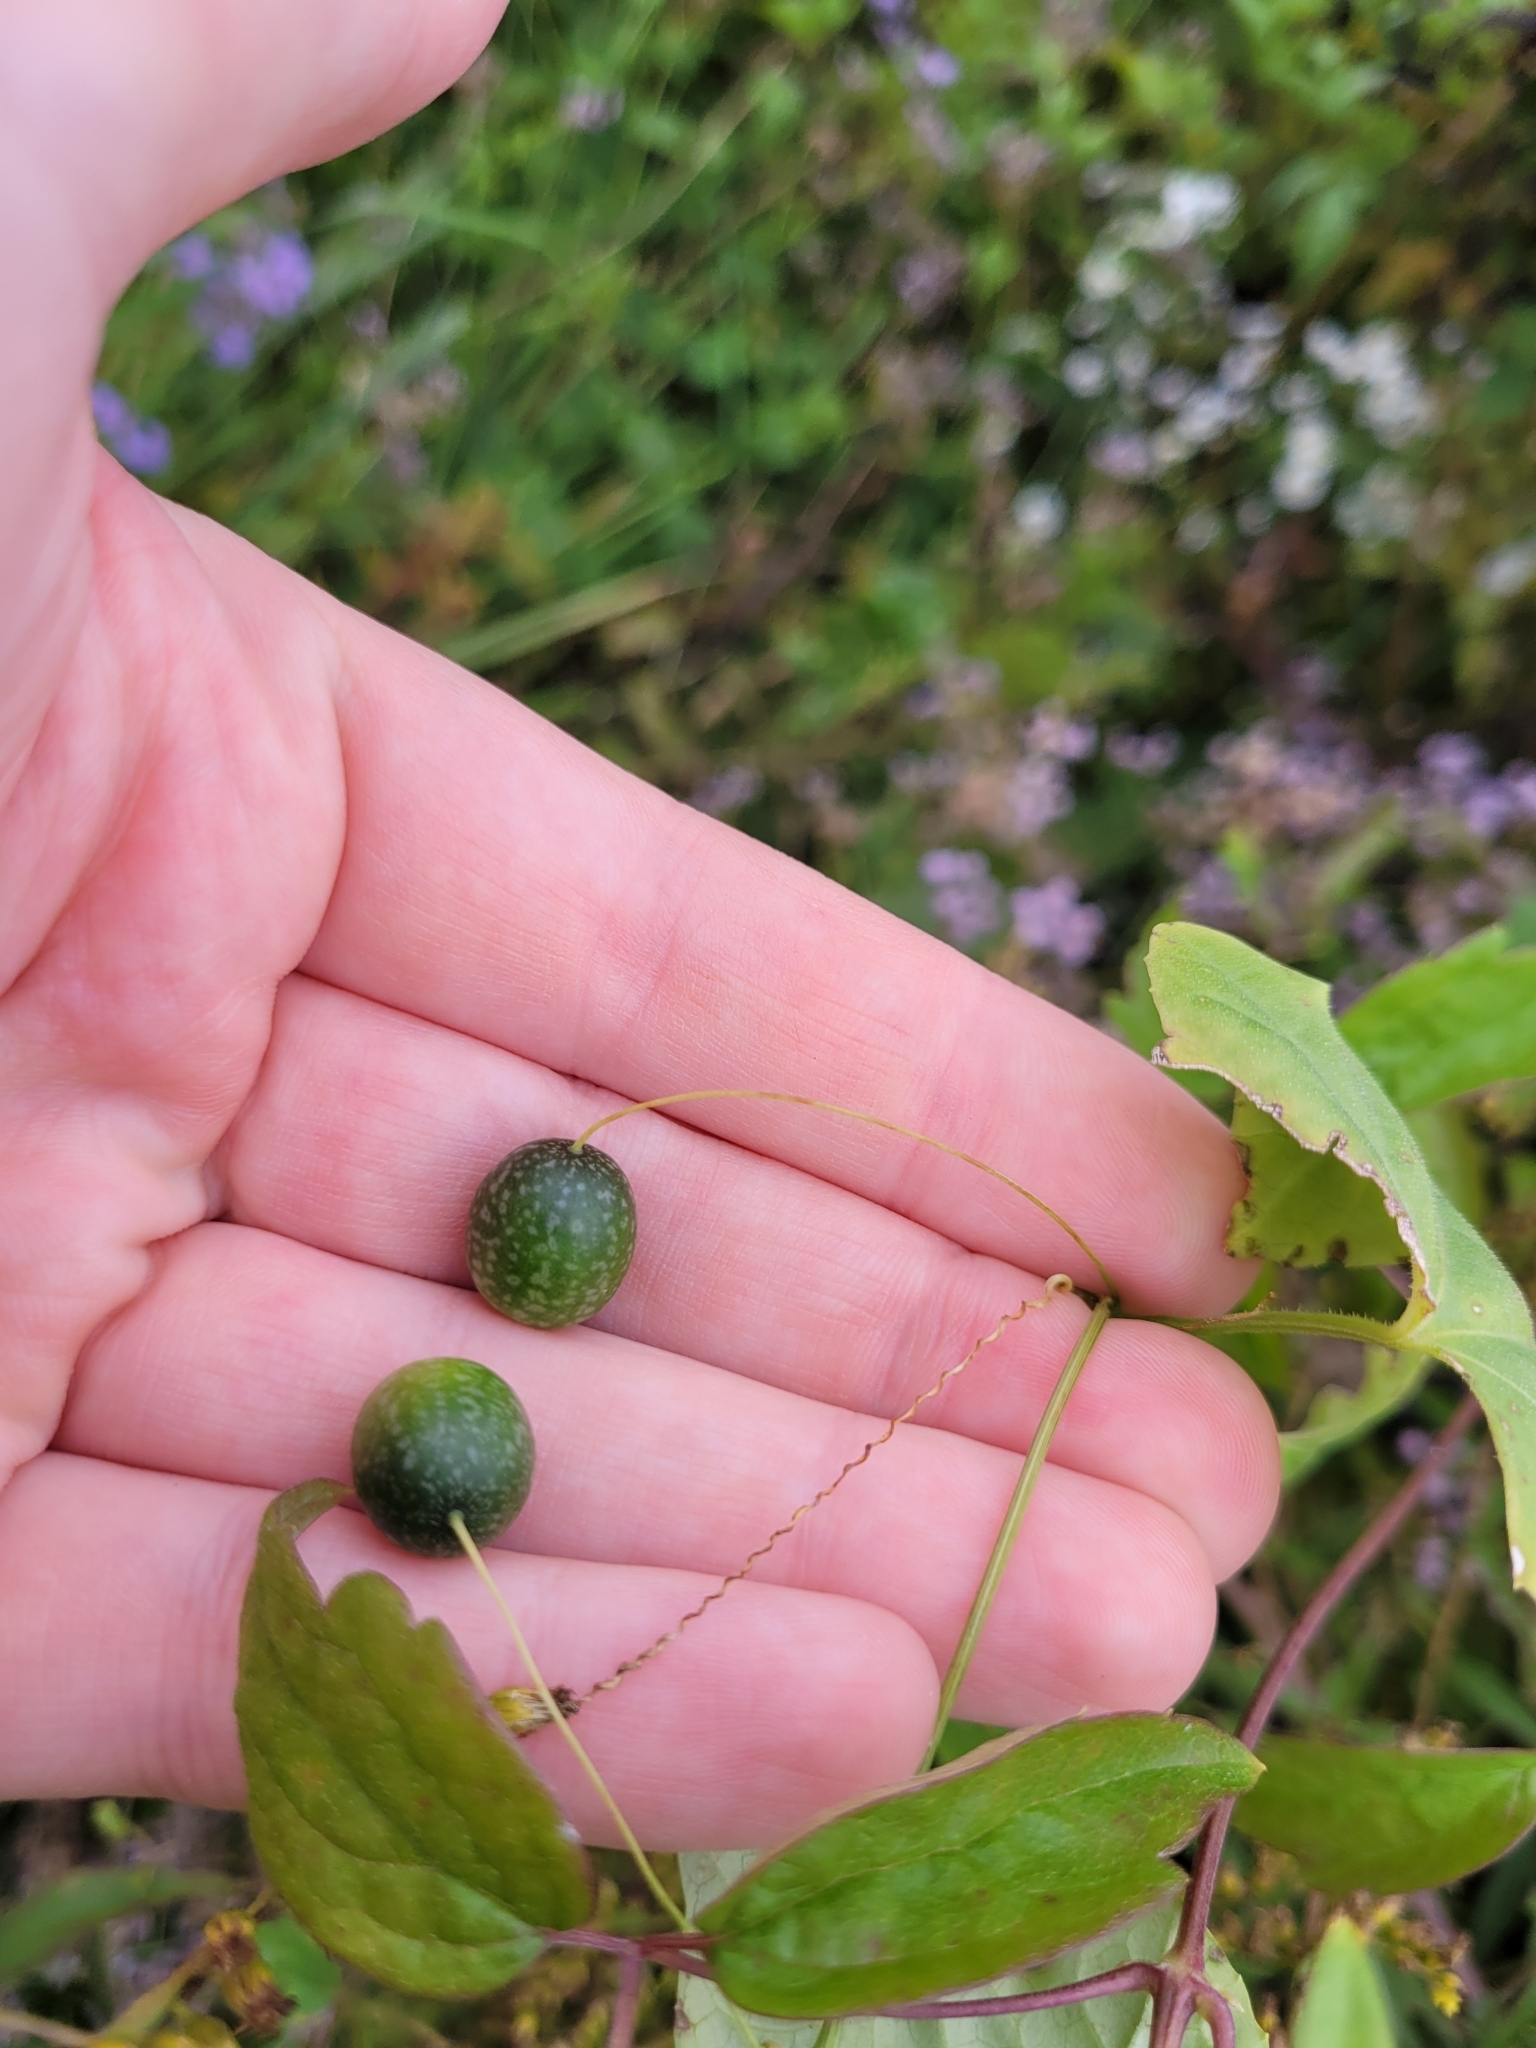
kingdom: Plantae
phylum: Tracheophyta
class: Magnoliopsida
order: Cucurbitales
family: Cucurbitaceae
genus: Melothria
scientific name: Melothria pendula
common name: Creeping-cucumber
